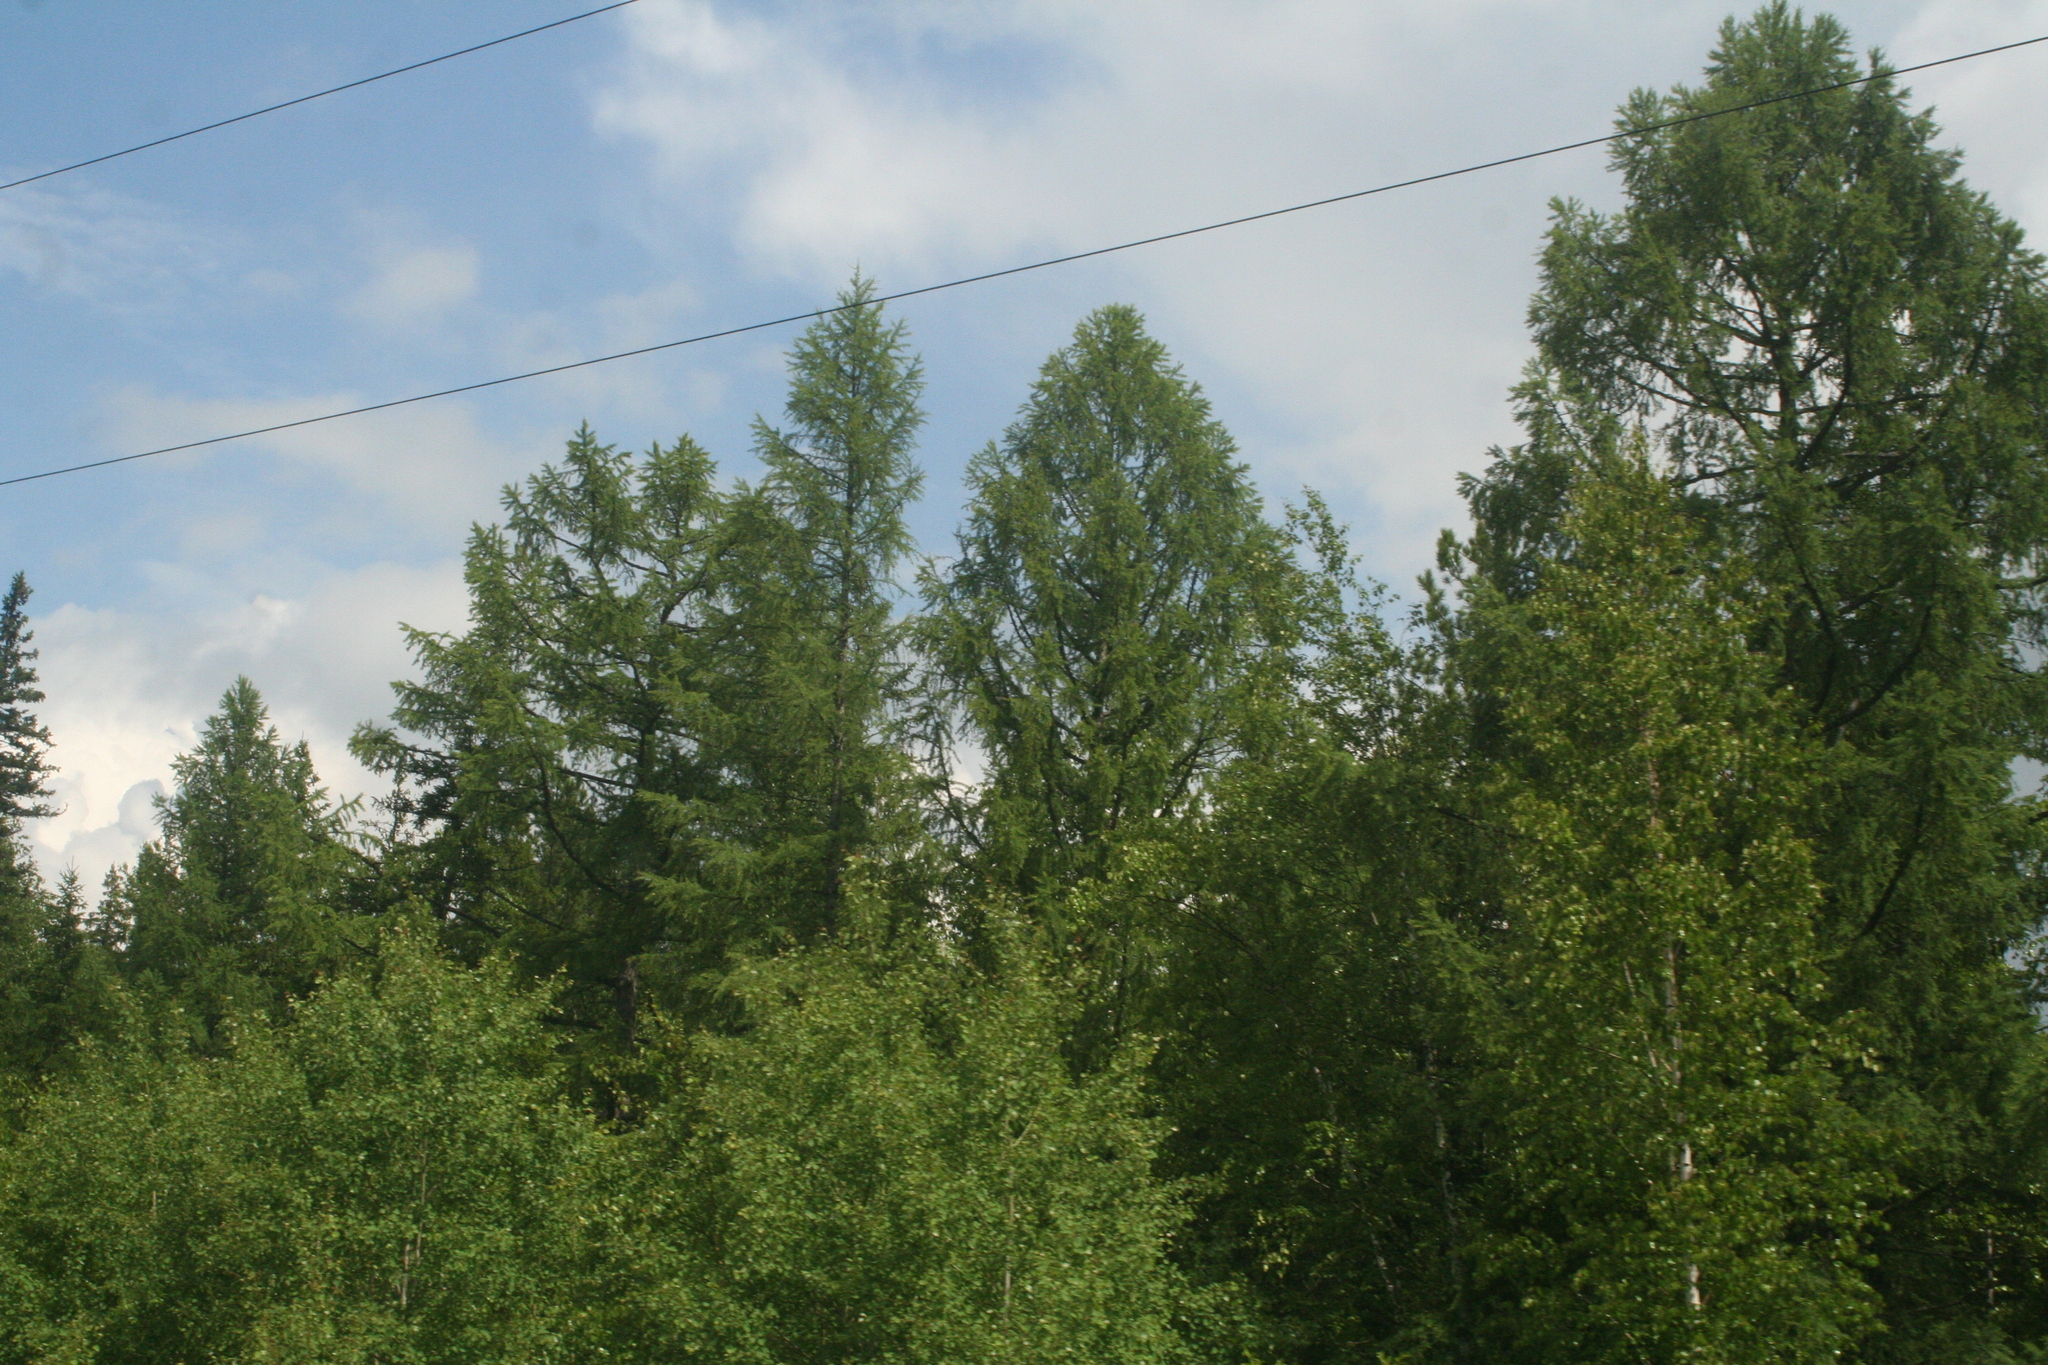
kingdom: Plantae
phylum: Tracheophyta
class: Pinopsida
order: Pinales
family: Pinaceae
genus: Picea
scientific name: Picea obovata
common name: Siberian spruce
